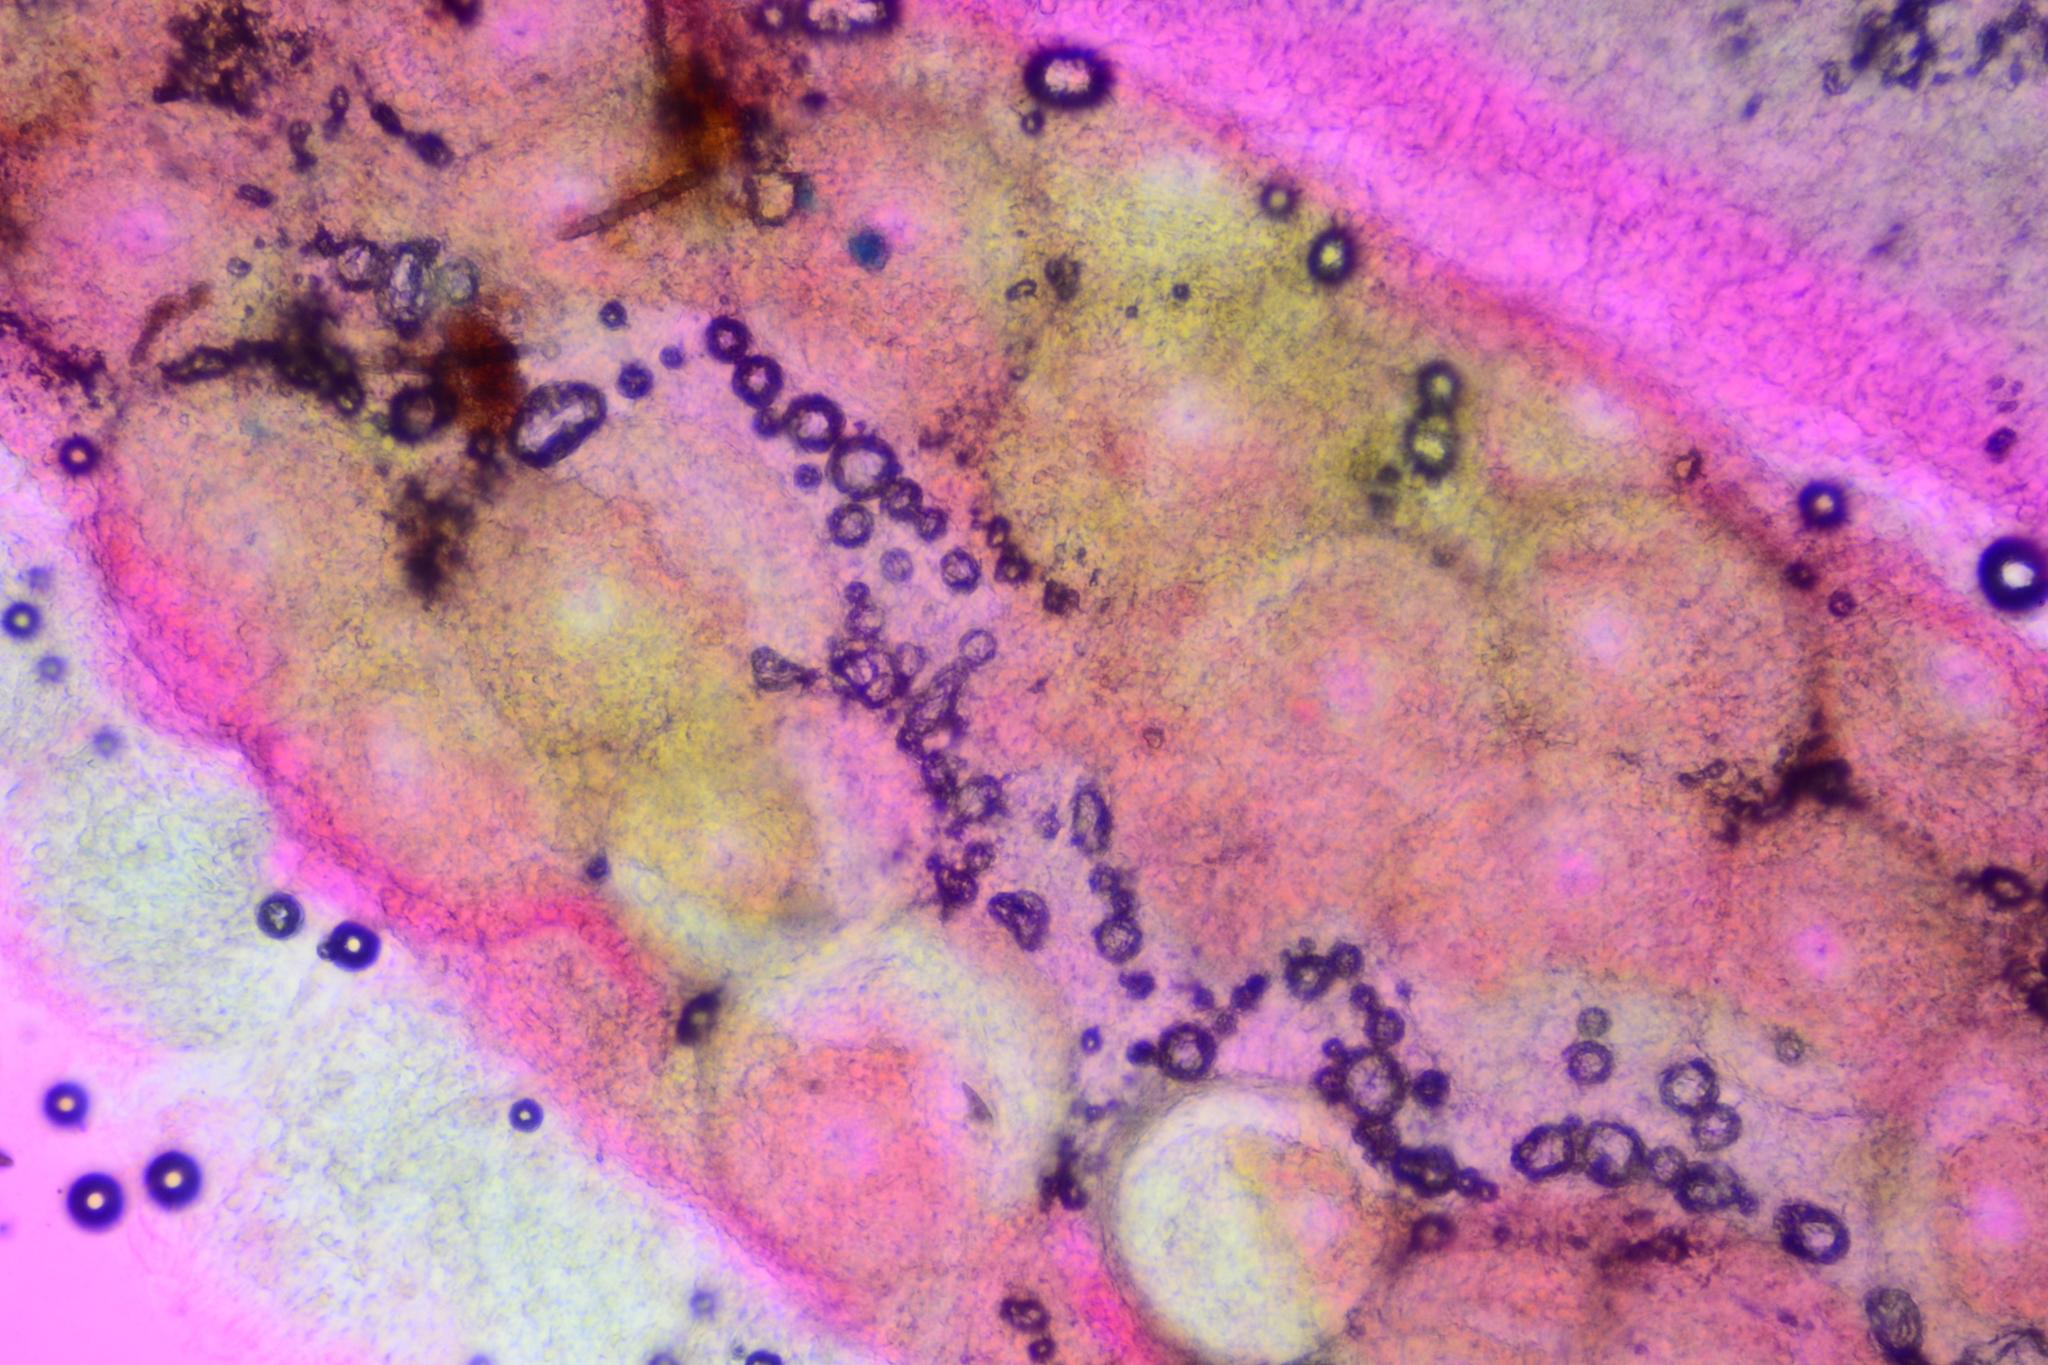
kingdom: Fungi
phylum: Ascomycota
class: Sordariomycetes
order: Hypocreales
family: Hypocreaceae
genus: Trichoderma
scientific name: Trichoderma alutaceum
